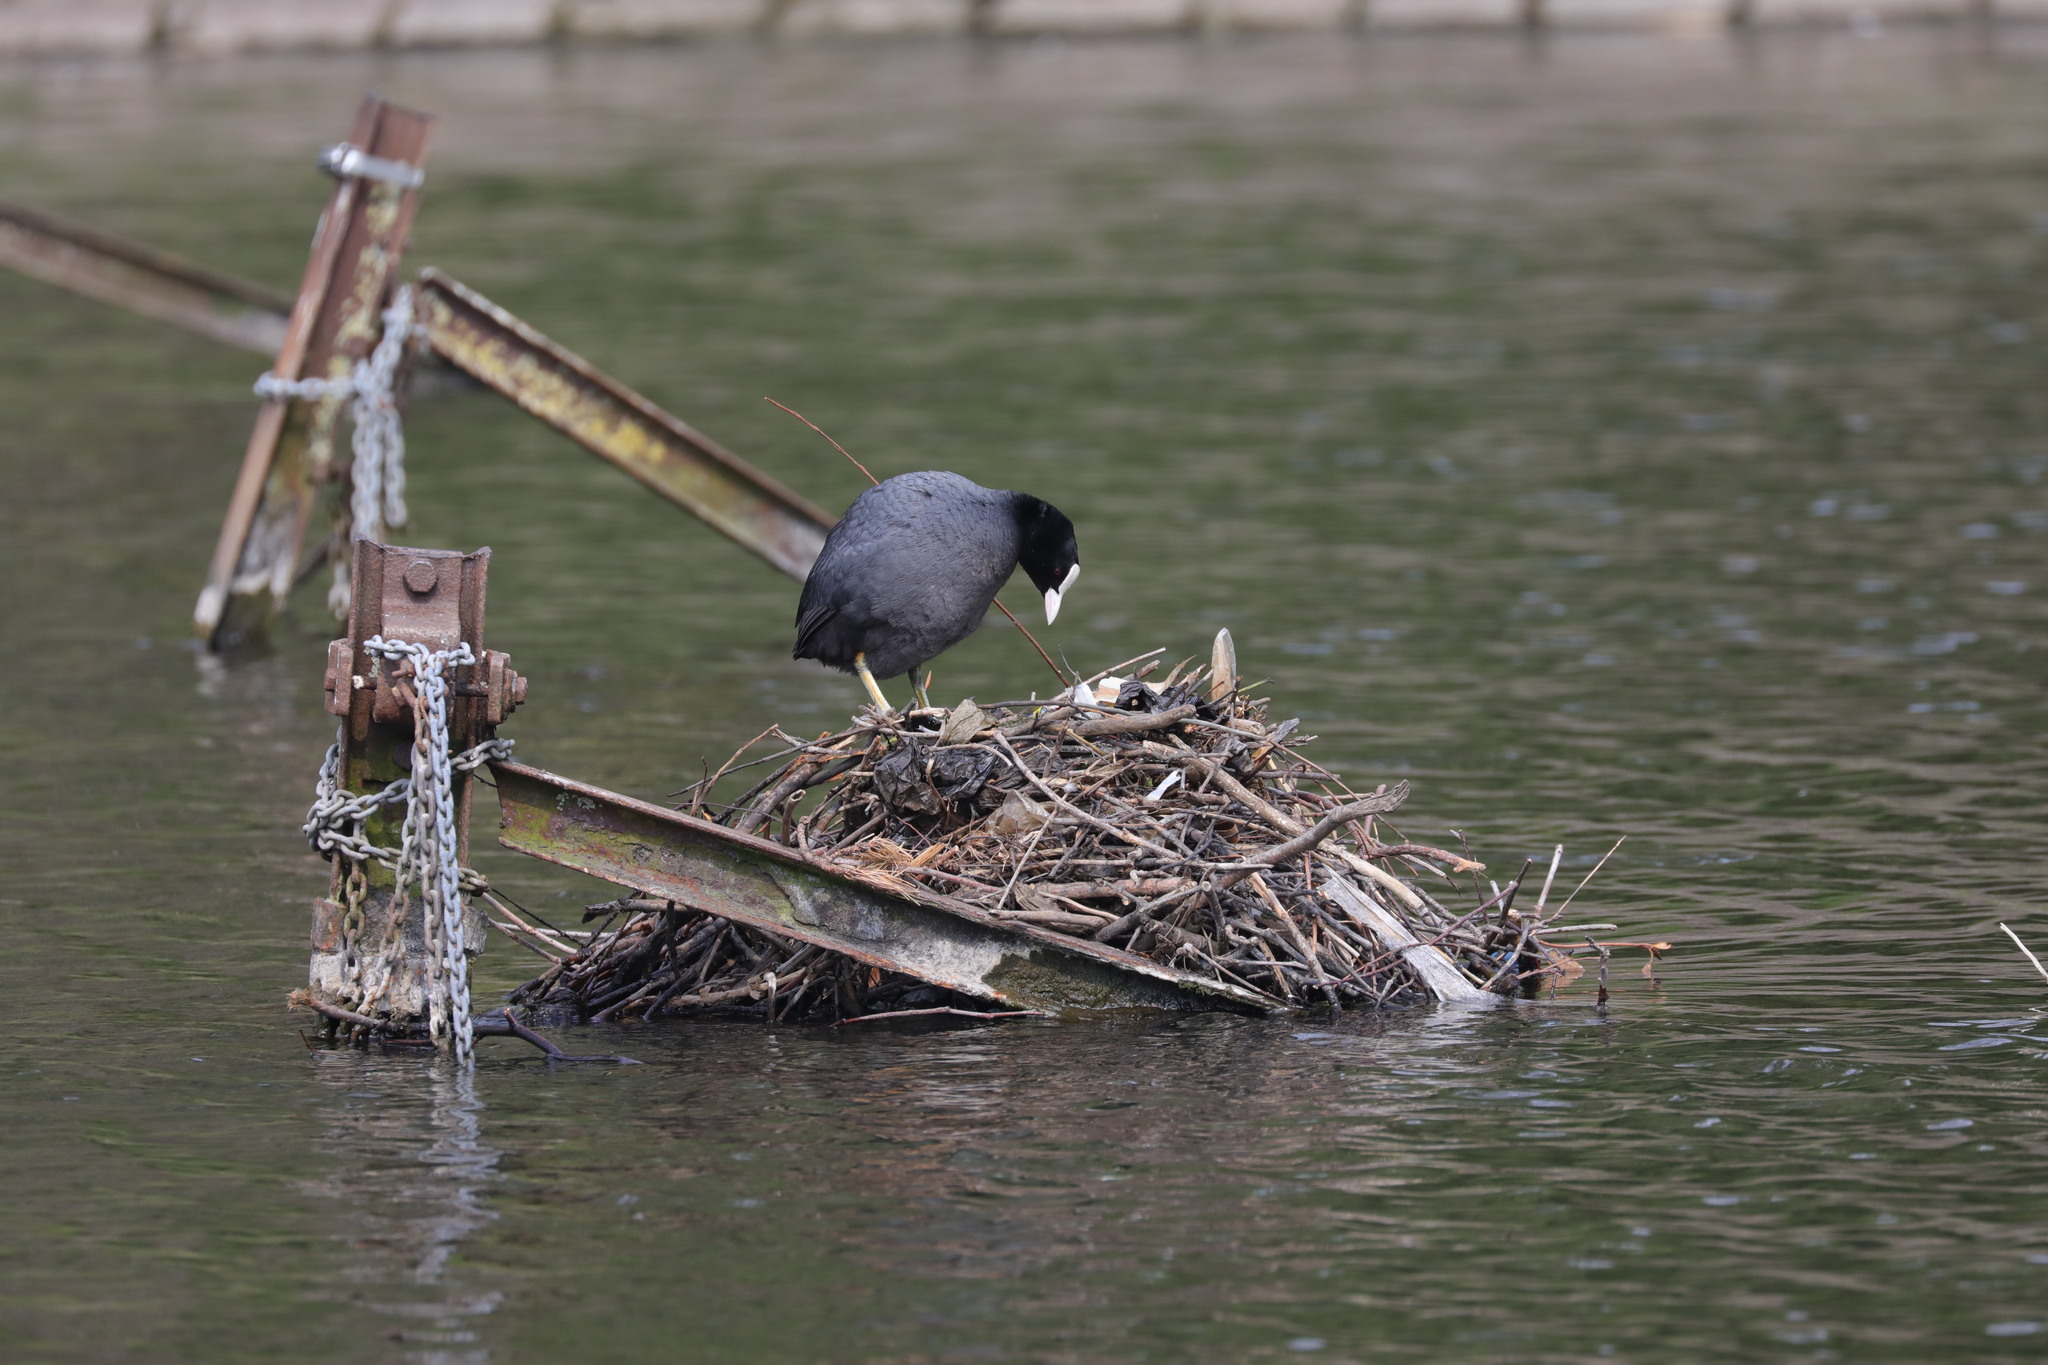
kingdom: Animalia
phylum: Chordata
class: Aves
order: Gruiformes
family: Rallidae
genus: Fulica
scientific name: Fulica atra
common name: Eurasian coot
